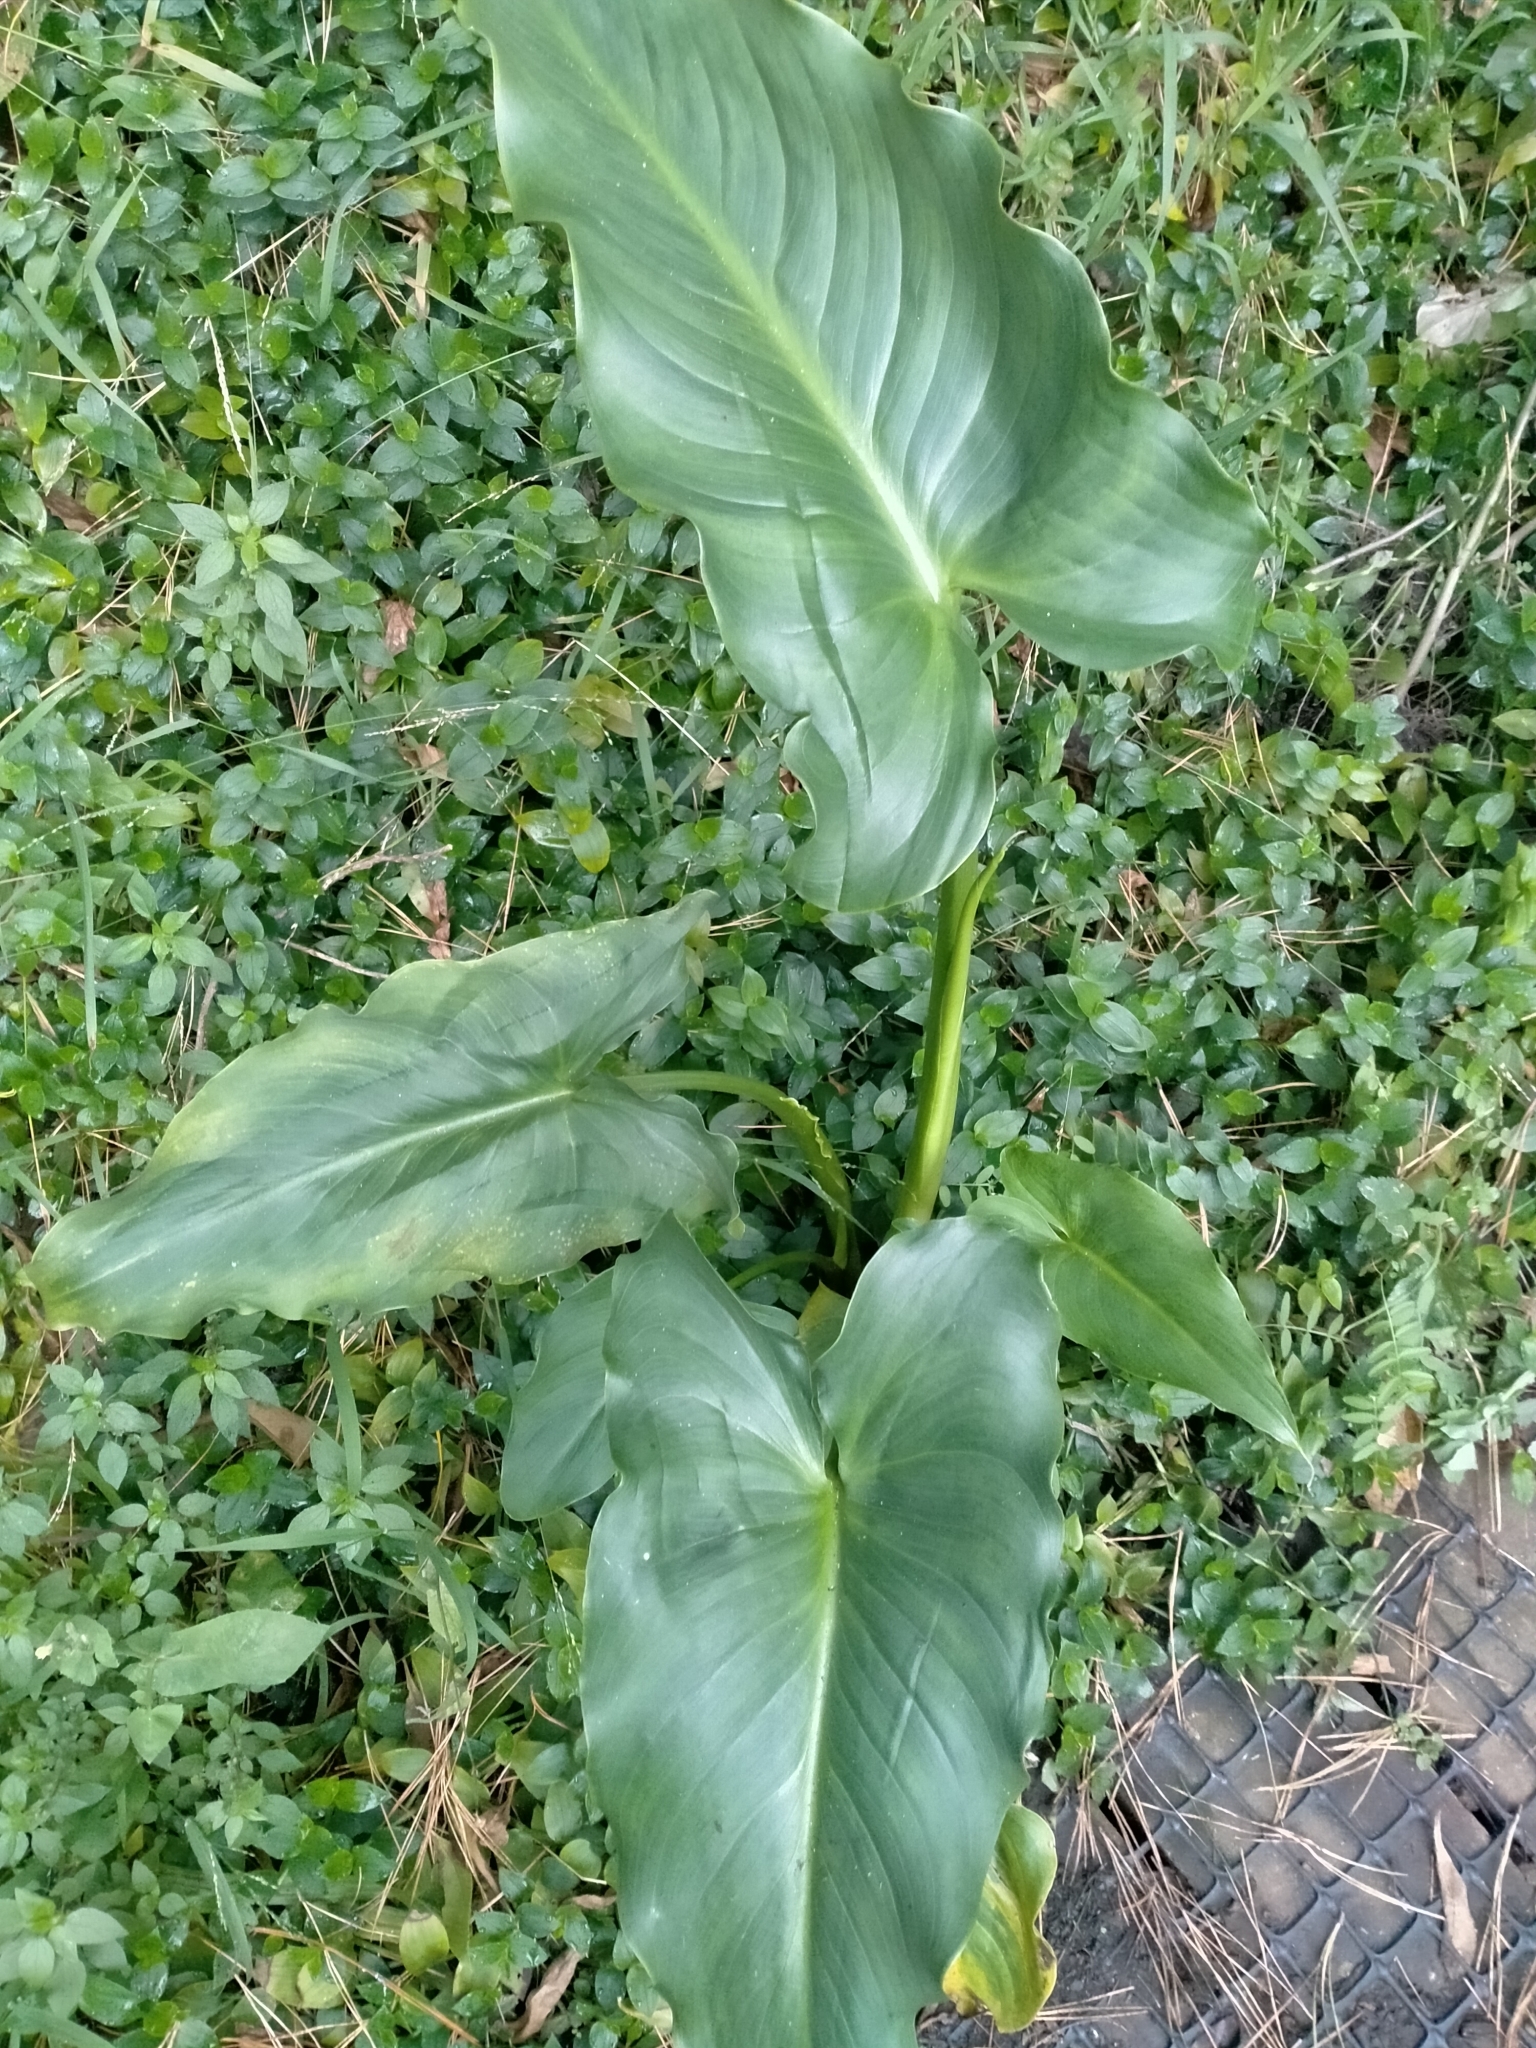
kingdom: Plantae
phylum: Tracheophyta
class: Liliopsida
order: Alismatales
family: Araceae
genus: Zantedeschia
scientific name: Zantedeschia aethiopica
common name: Altar-lily
